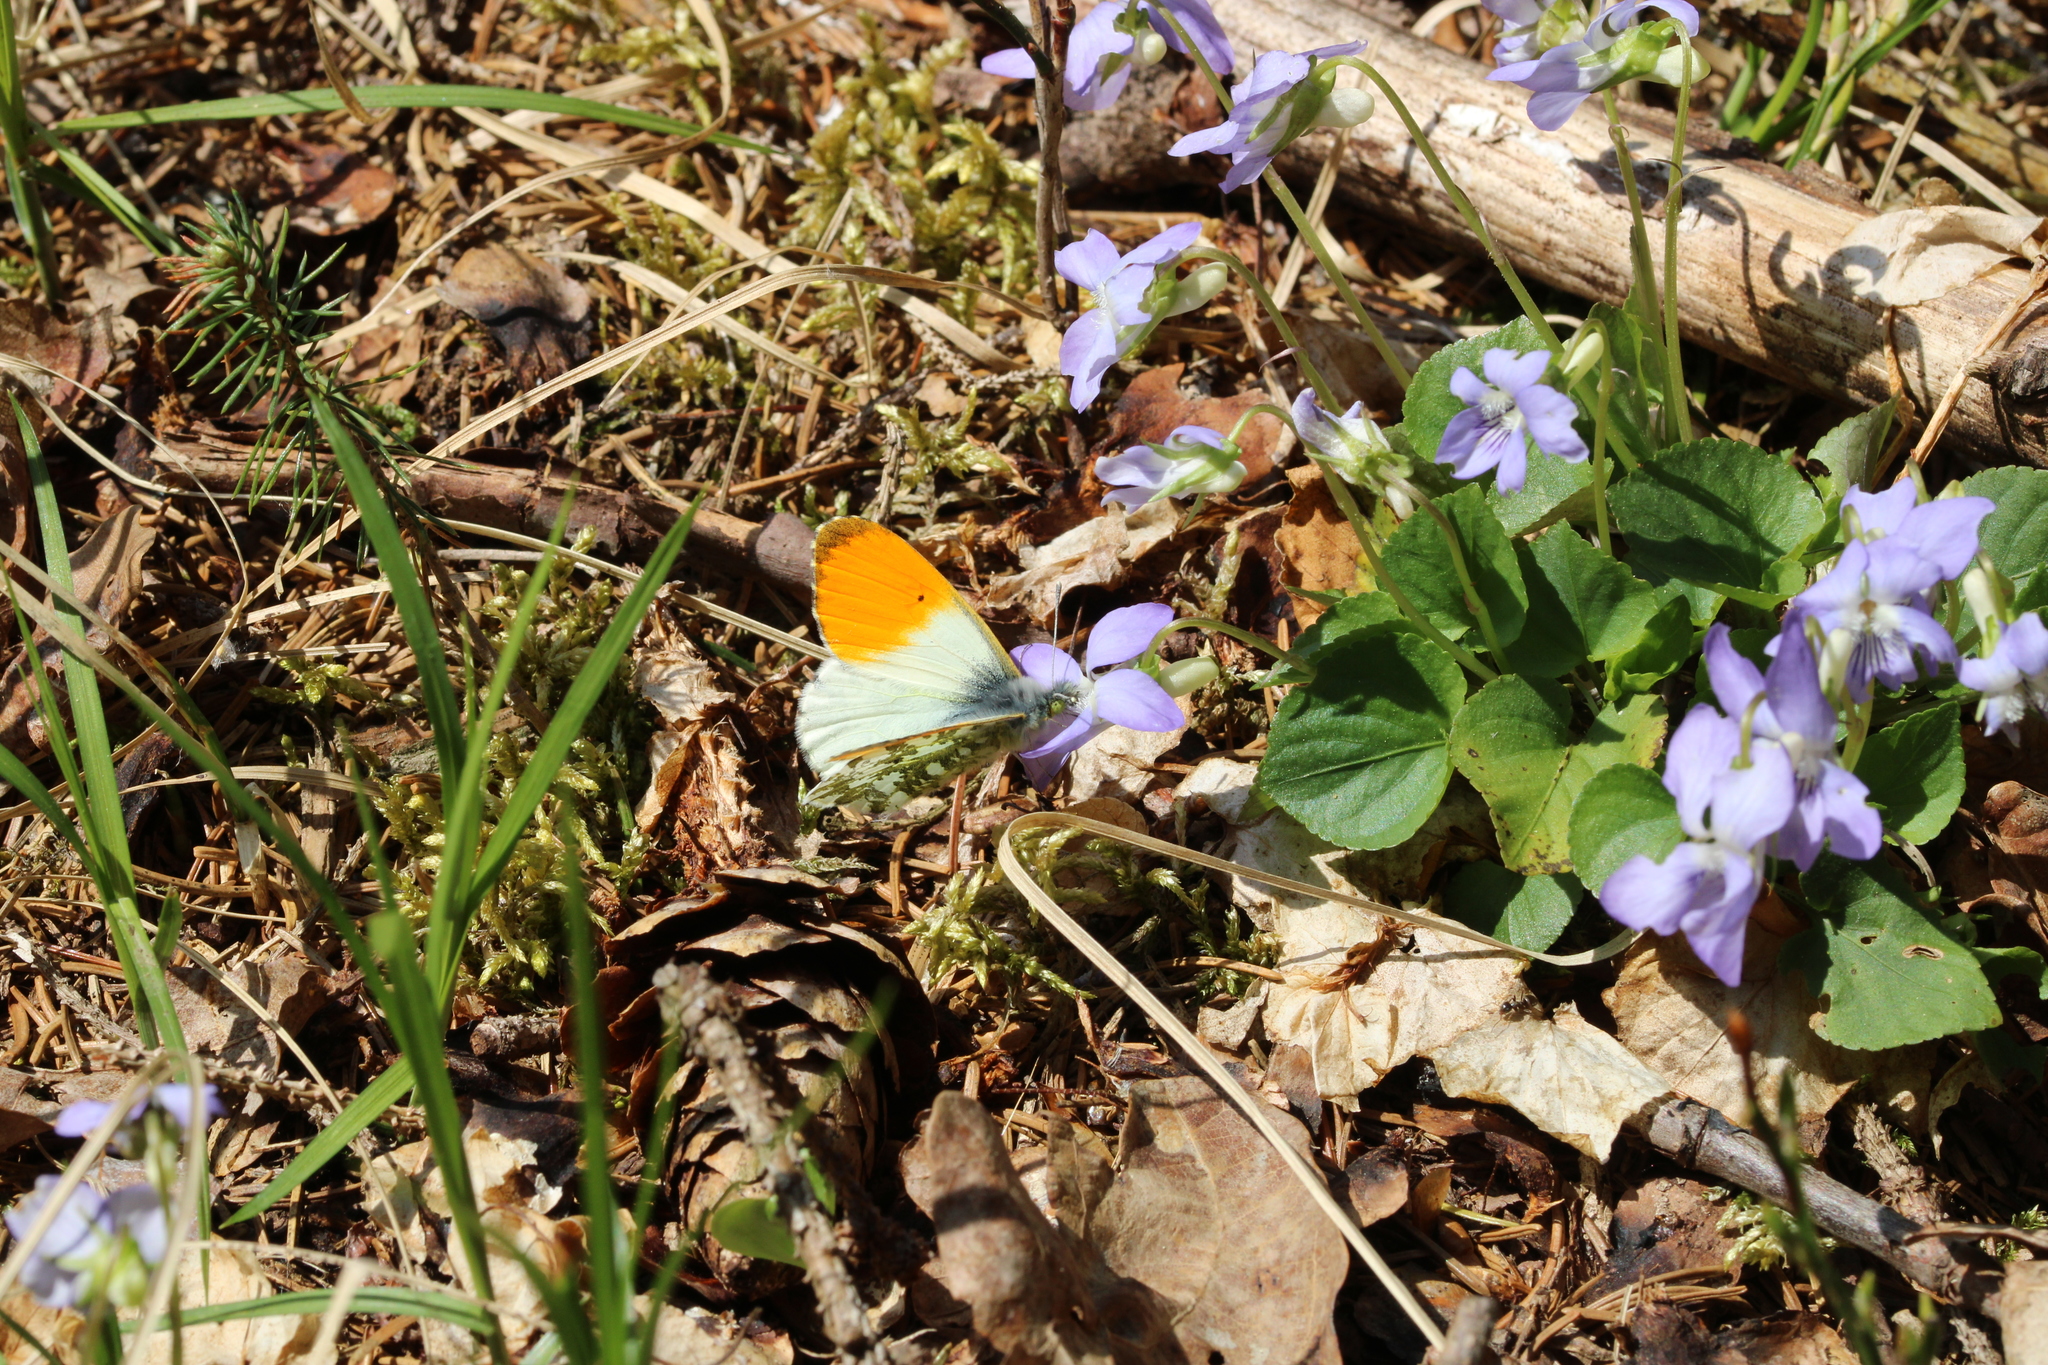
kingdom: Animalia
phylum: Arthropoda
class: Insecta
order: Lepidoptera
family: Pieridae
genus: Anthocharis
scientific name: Anthocharis cardamines
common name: Orange-tip
